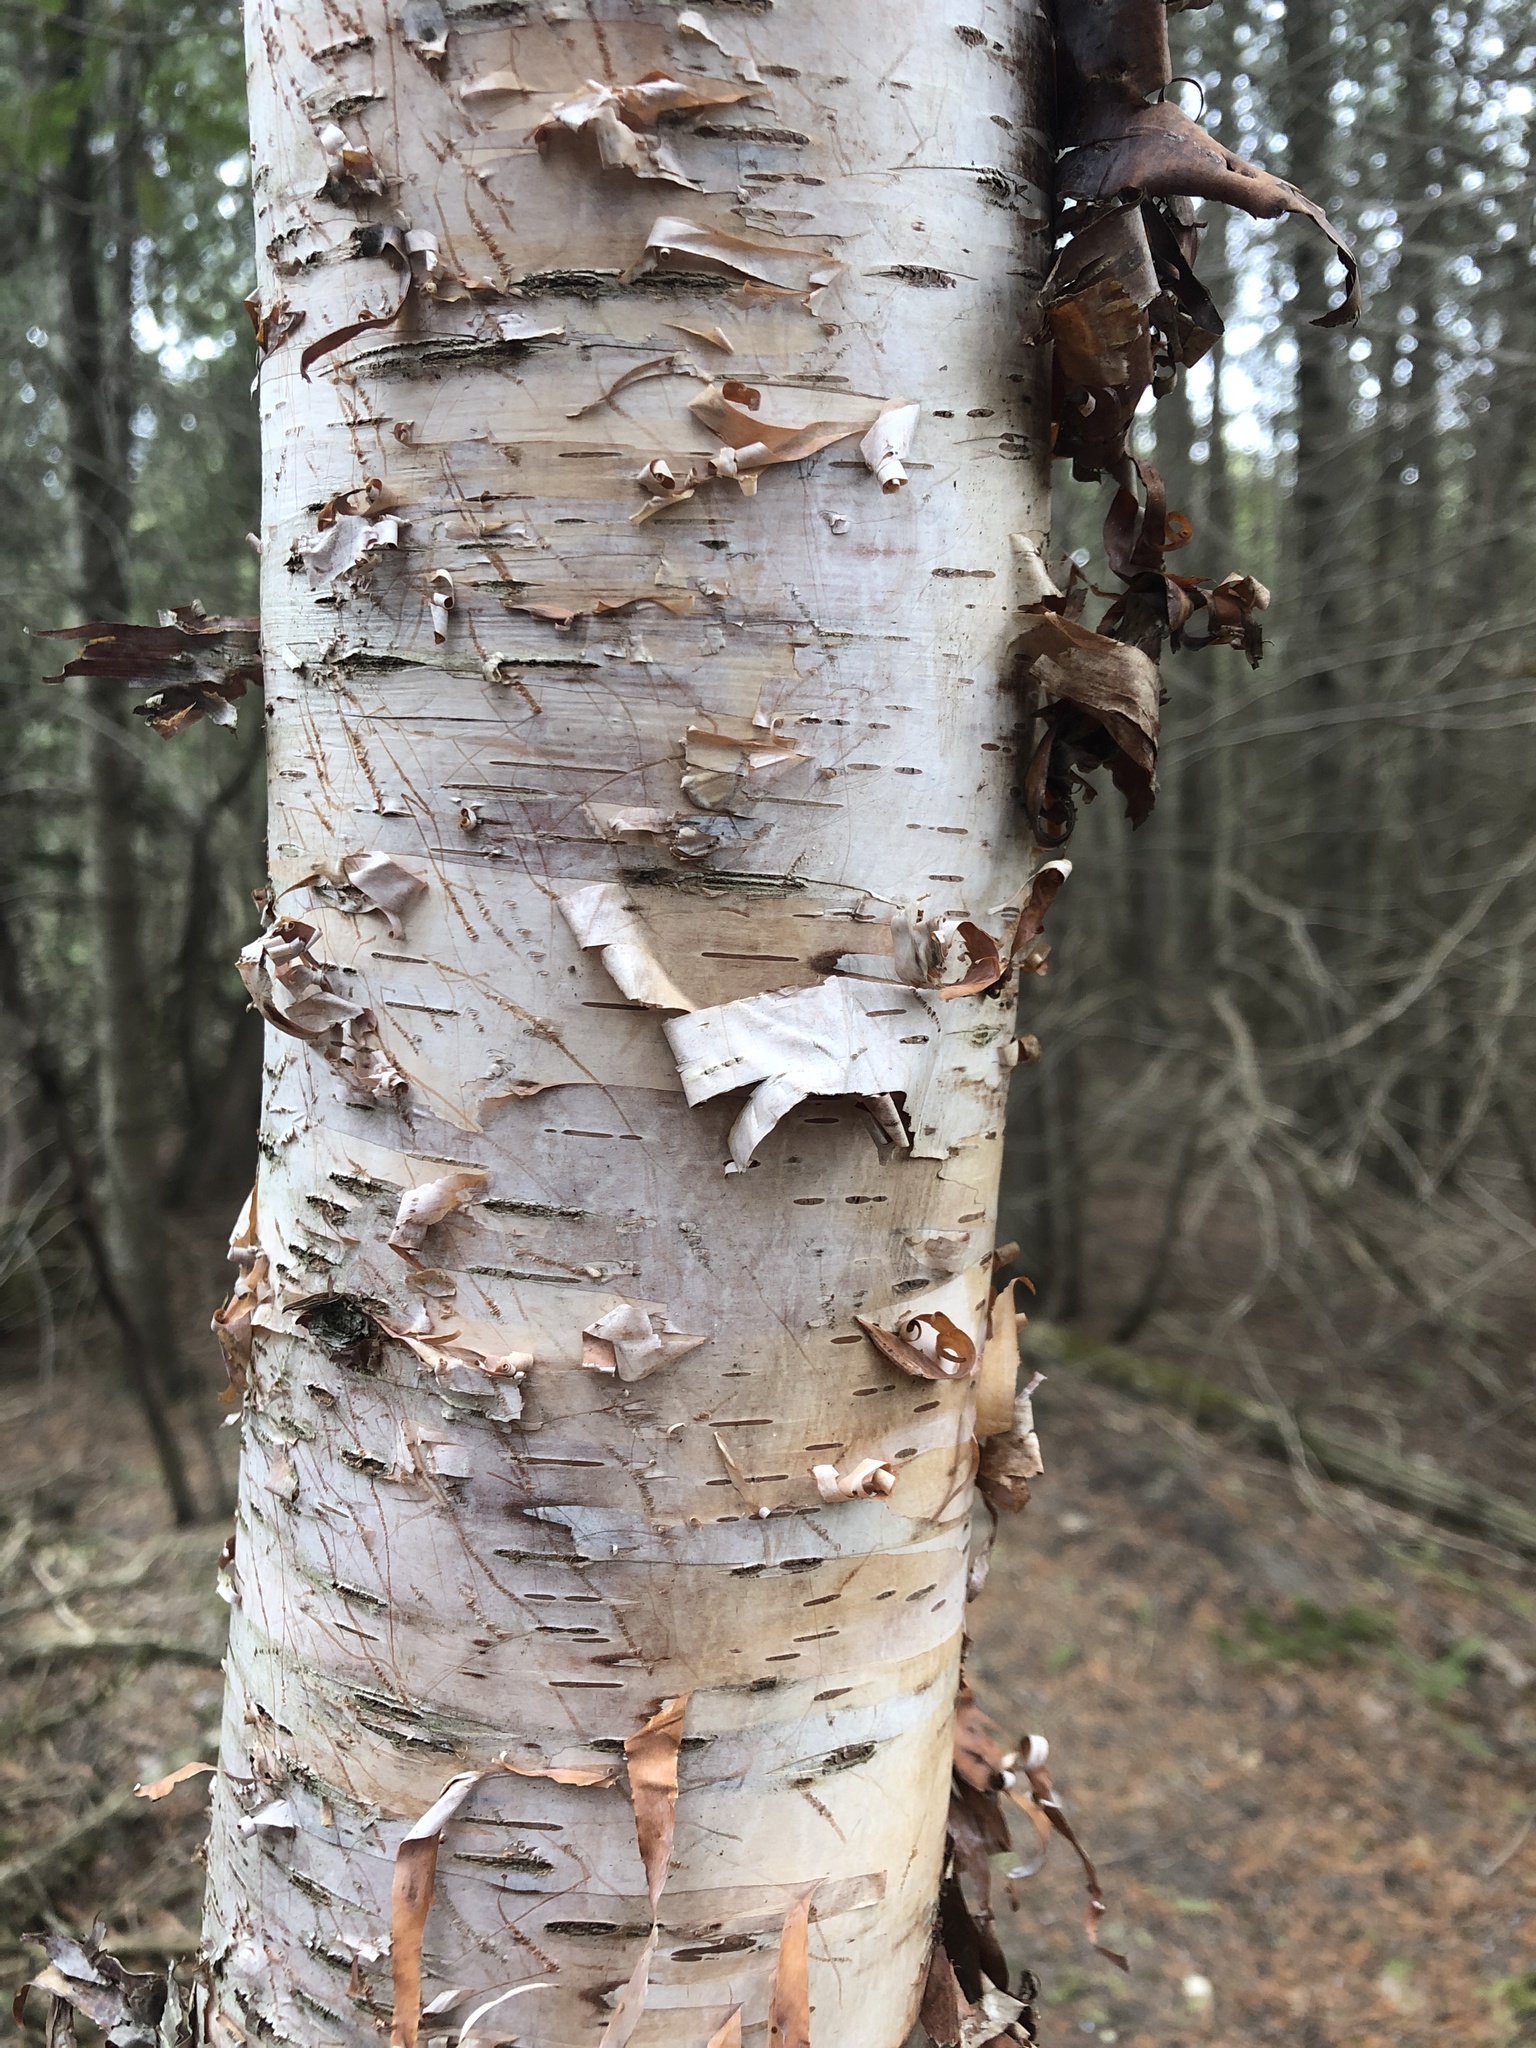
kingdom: Plantae
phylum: Tracheophyta
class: Magnoliopsida
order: Fagales
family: Betulaceae
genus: Betula
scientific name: Betula papyrifera
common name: Paper birch
